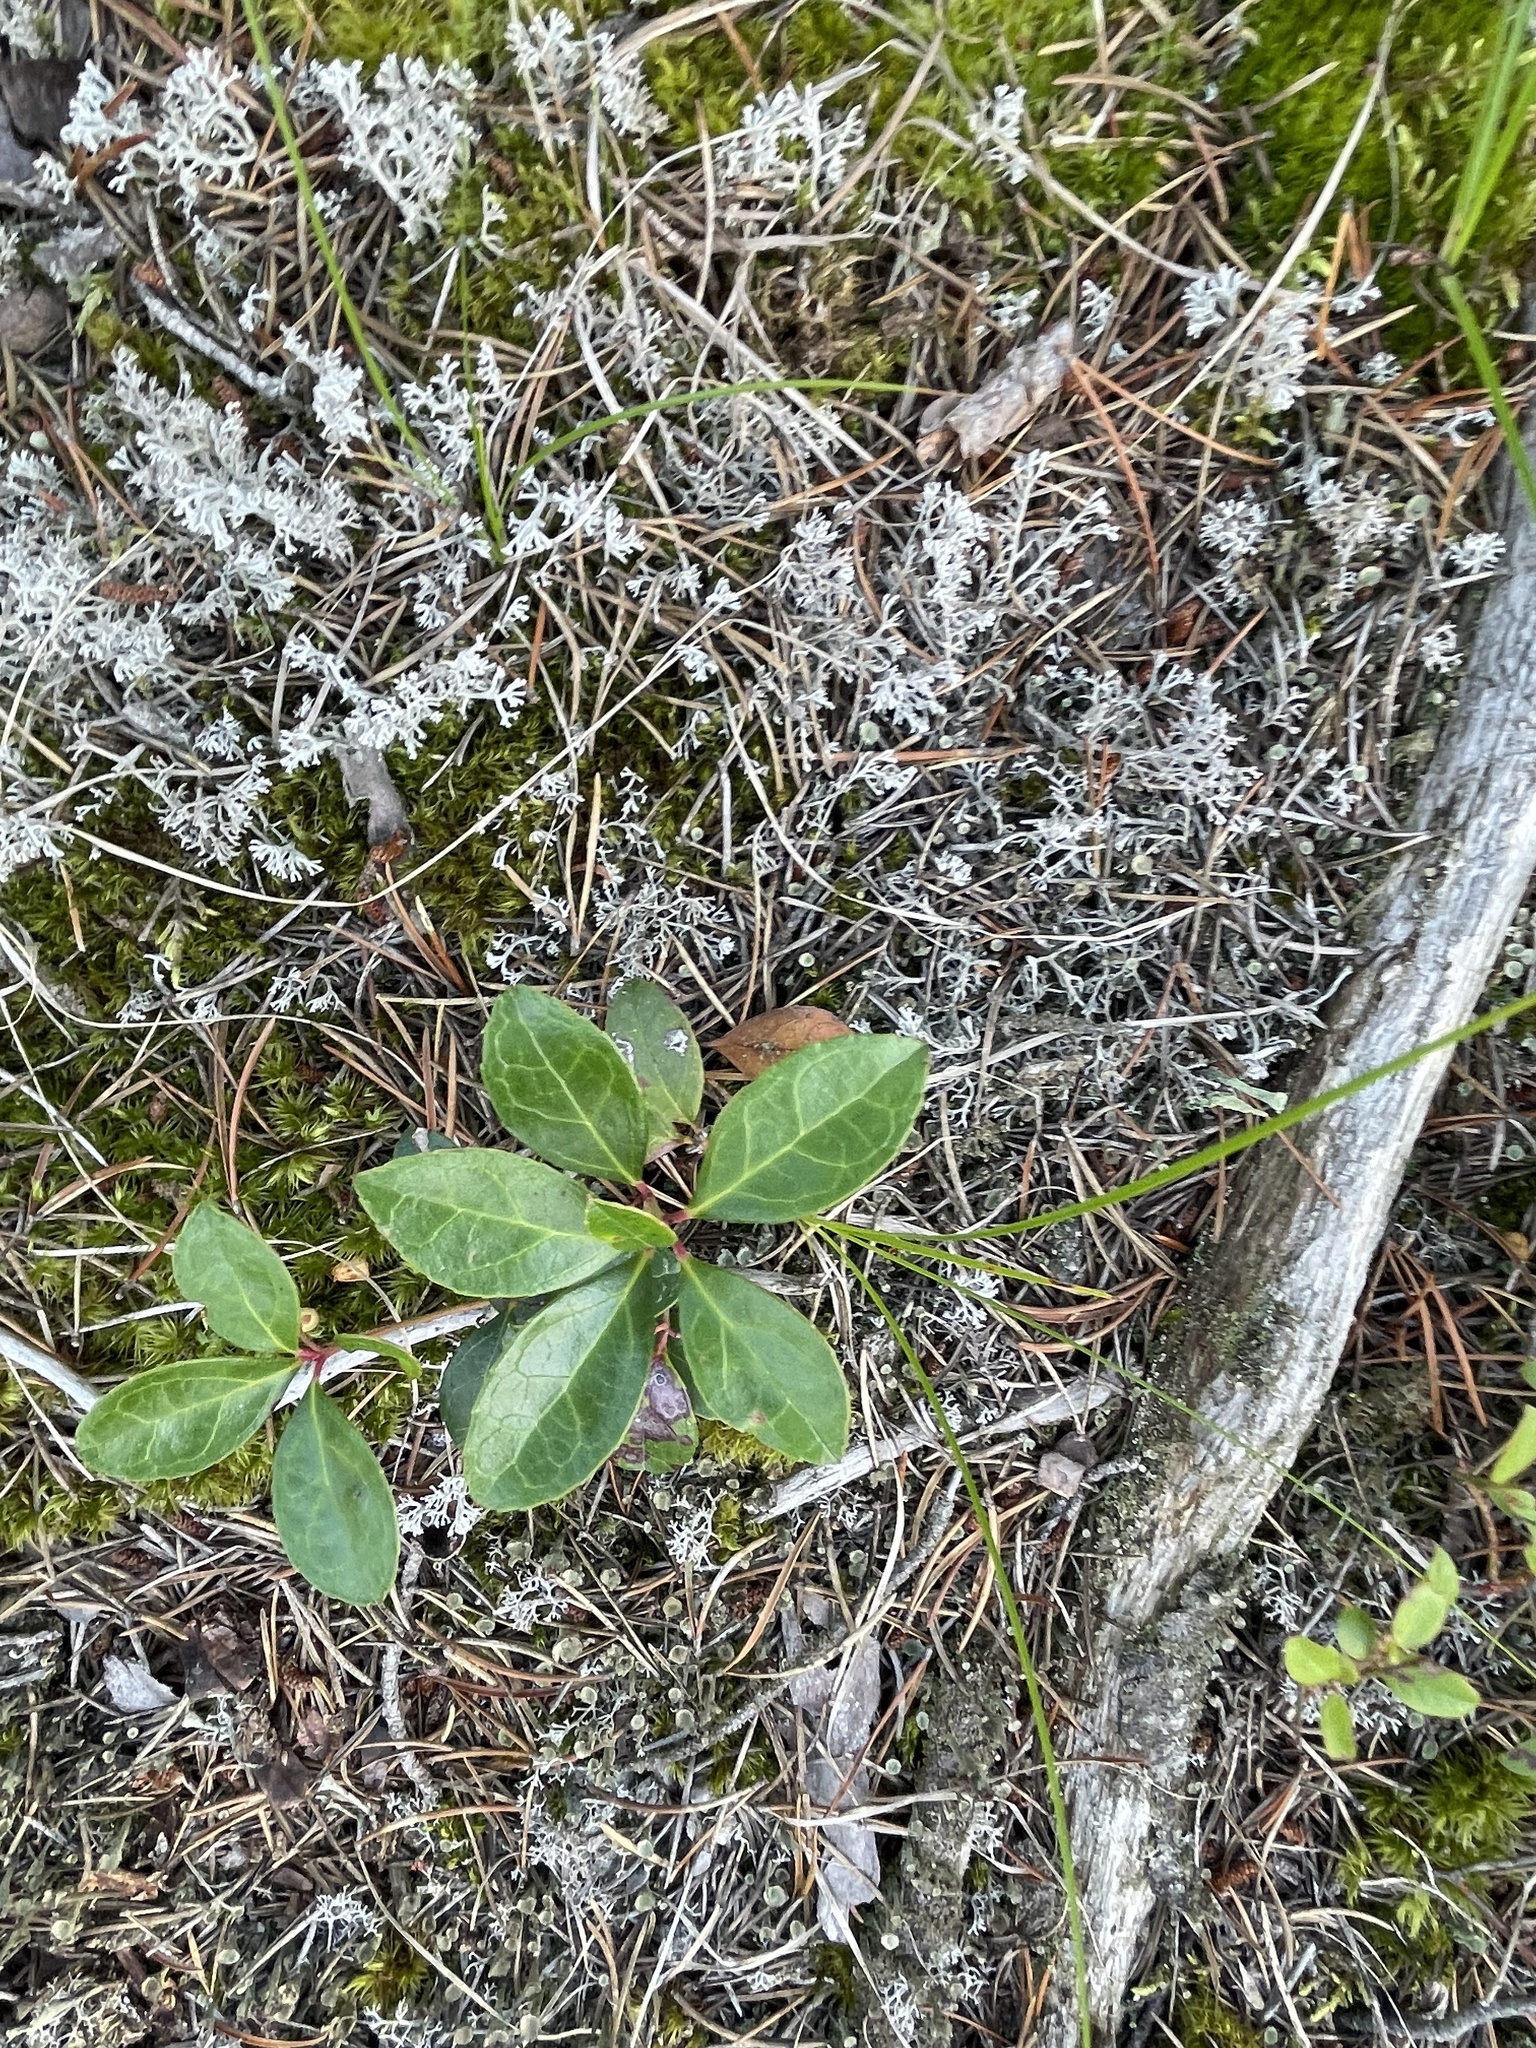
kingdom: Plantae
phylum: Tracheophyta
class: Magnoliopsida
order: Ericales
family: Ericaceae
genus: Gaultheria
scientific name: Gaultheria procumbens
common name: Checkerberry
